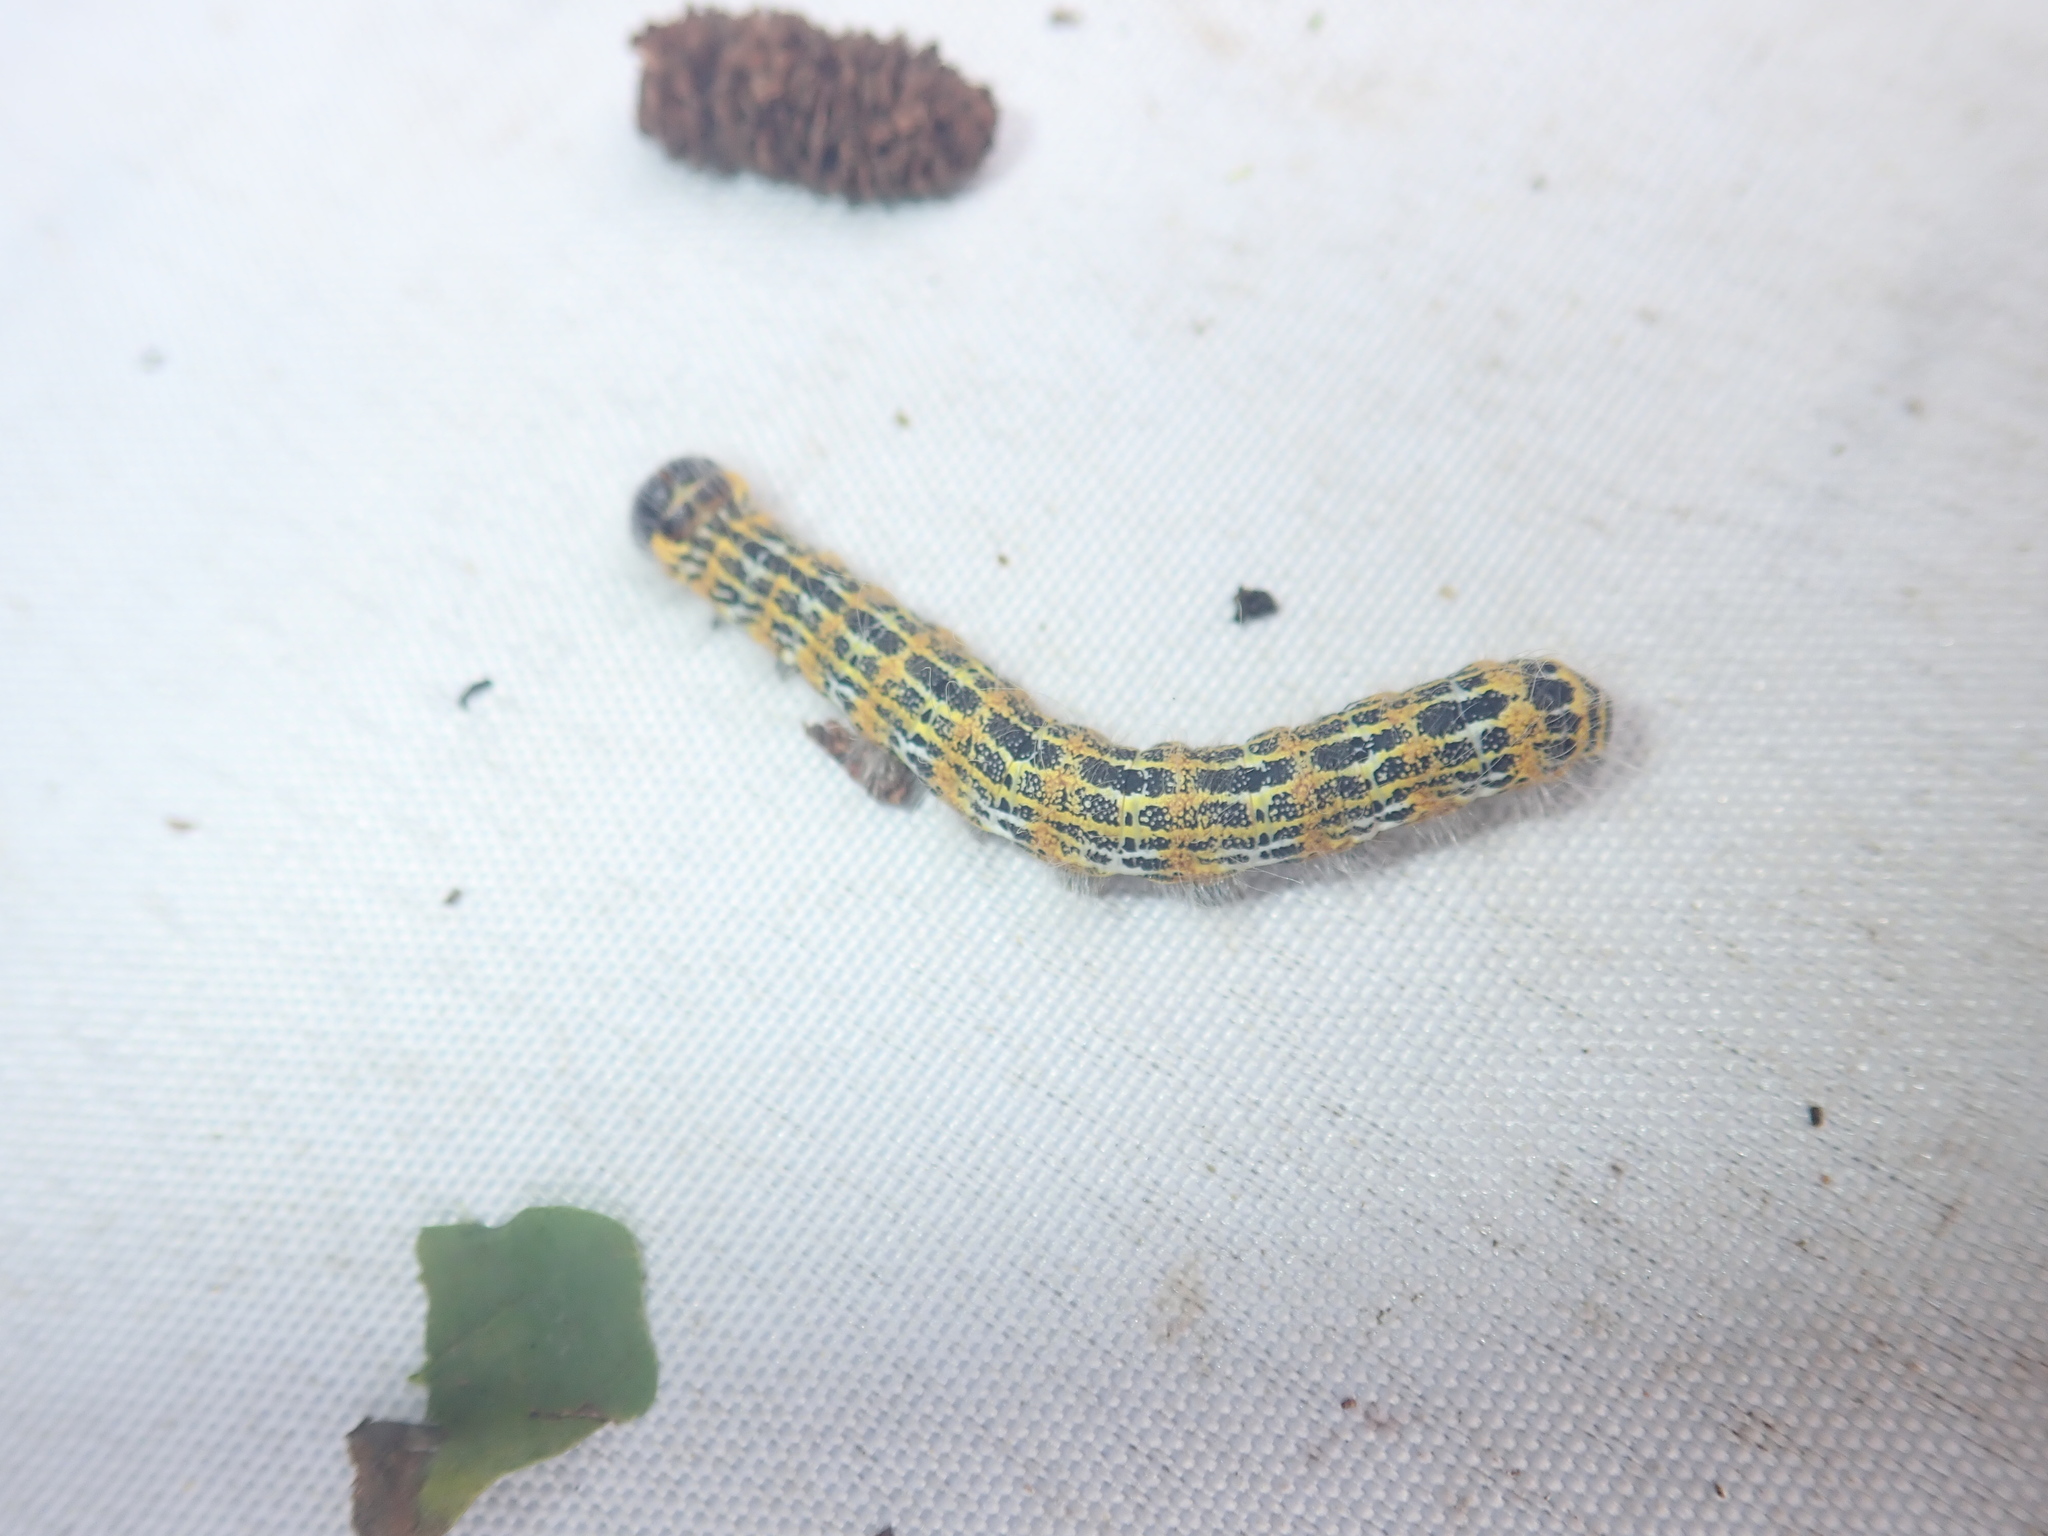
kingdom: Animalia
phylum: Arthropoda
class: Insecta
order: Lepidoptera
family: Notodontidae
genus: Phalera
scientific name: Phalera bucephala
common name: Buff-tip
